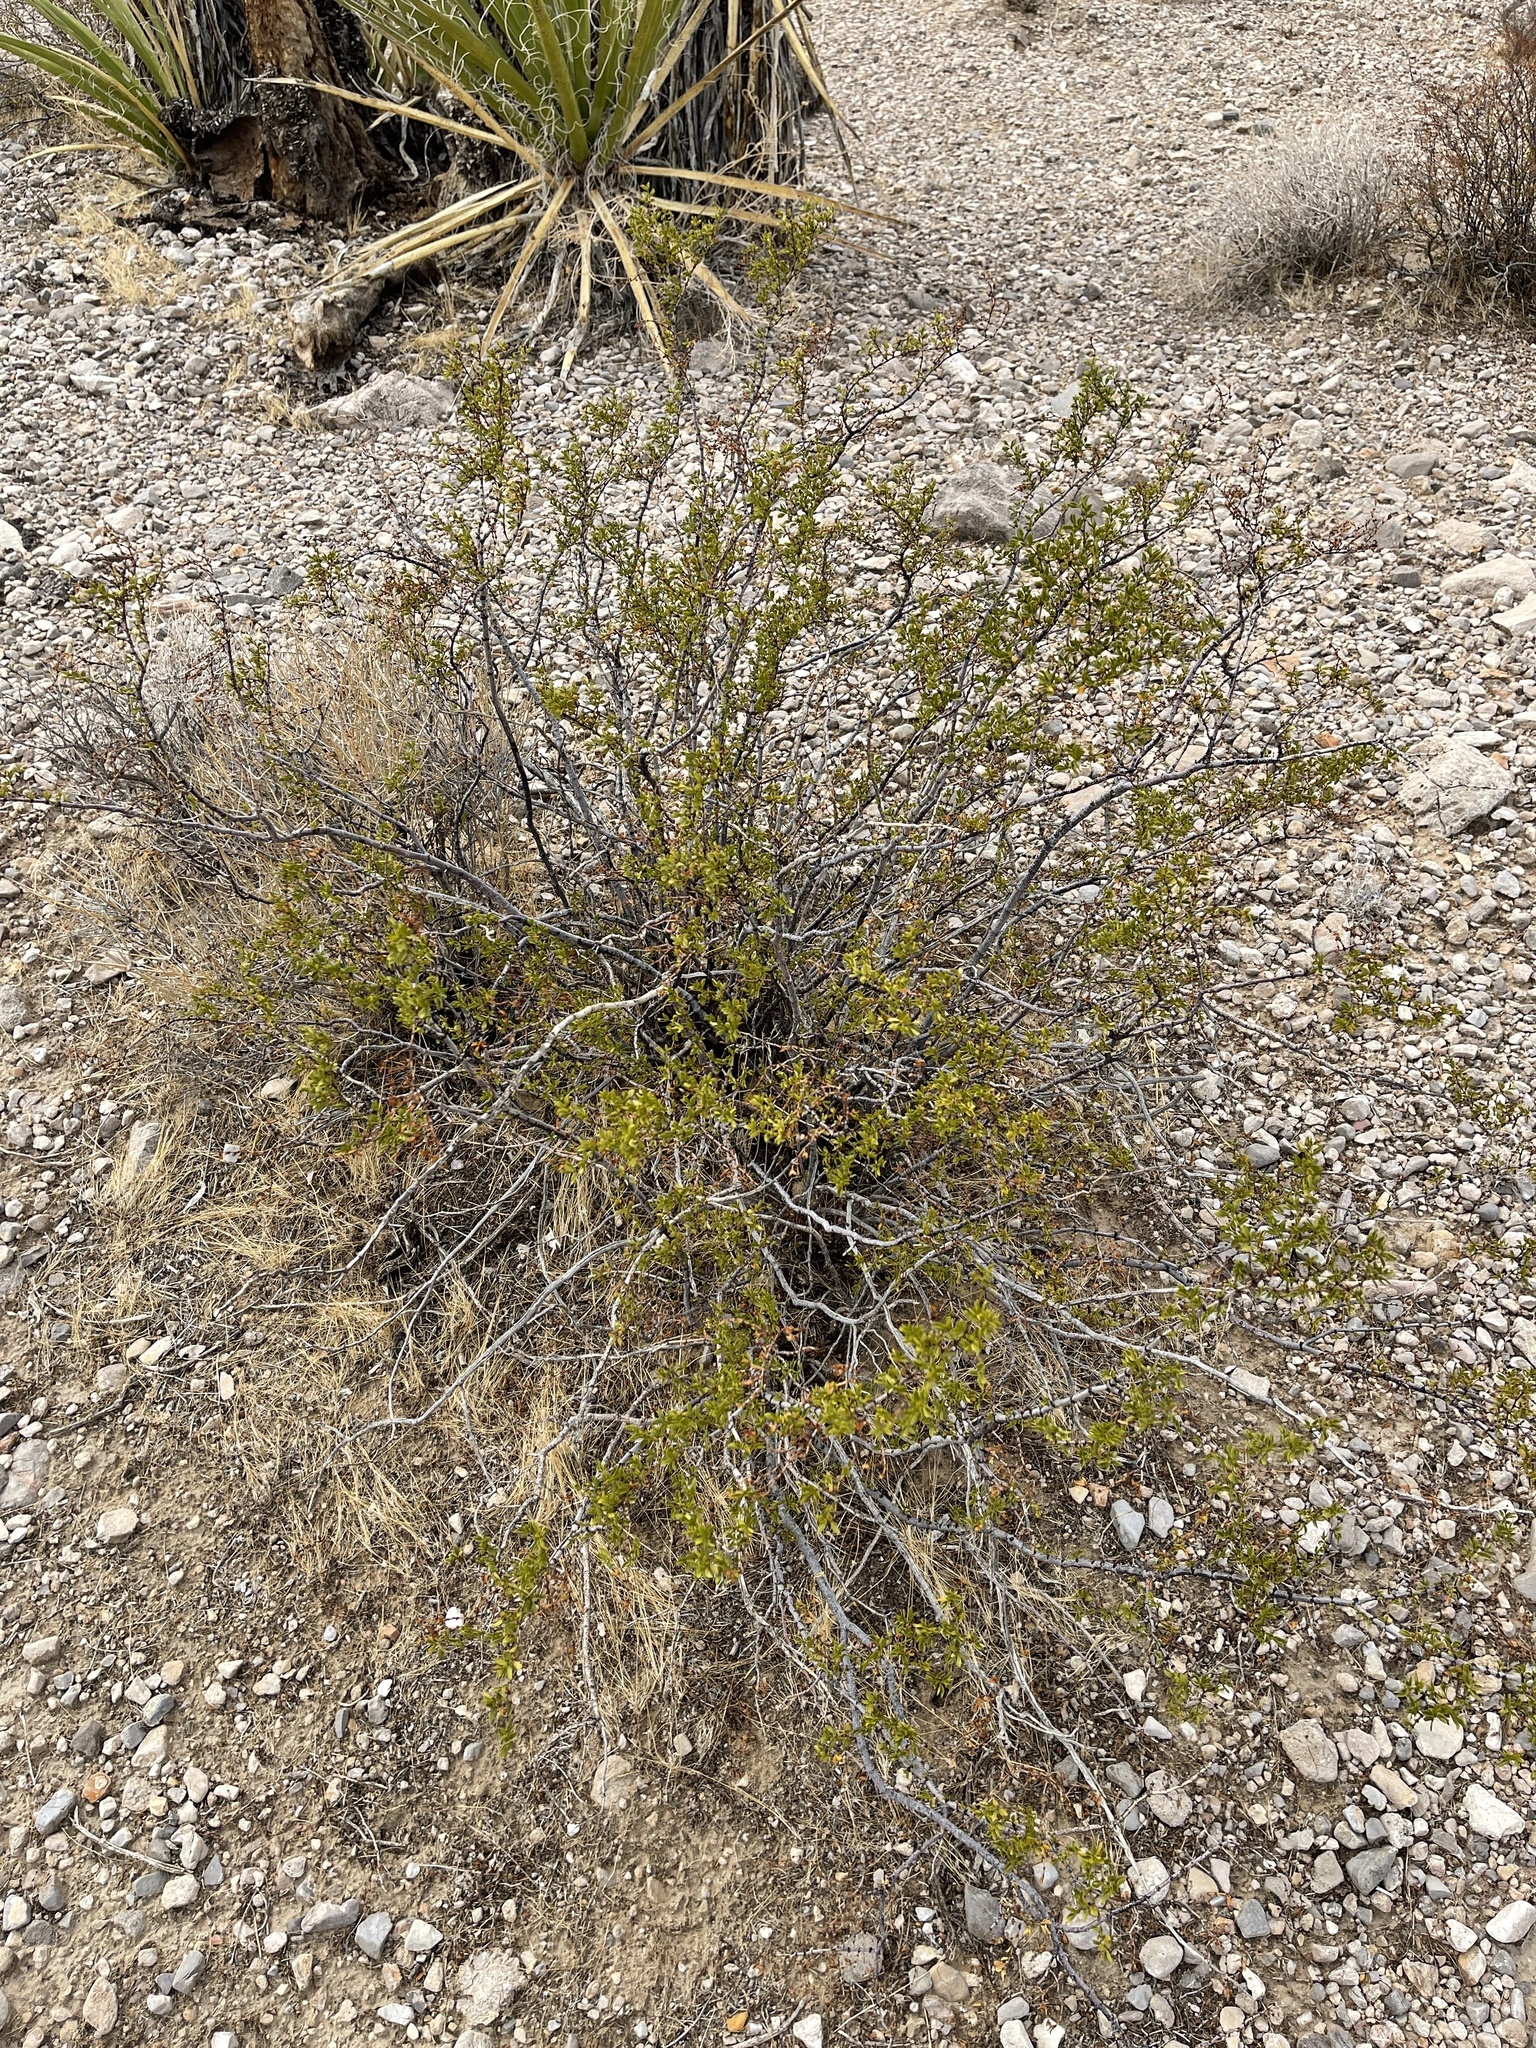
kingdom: Plantae
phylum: Tracheophyta
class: Magnoliopsida
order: Zygophyllales
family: Zygophyllaceae
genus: Larrea
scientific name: Larrea tridentata
